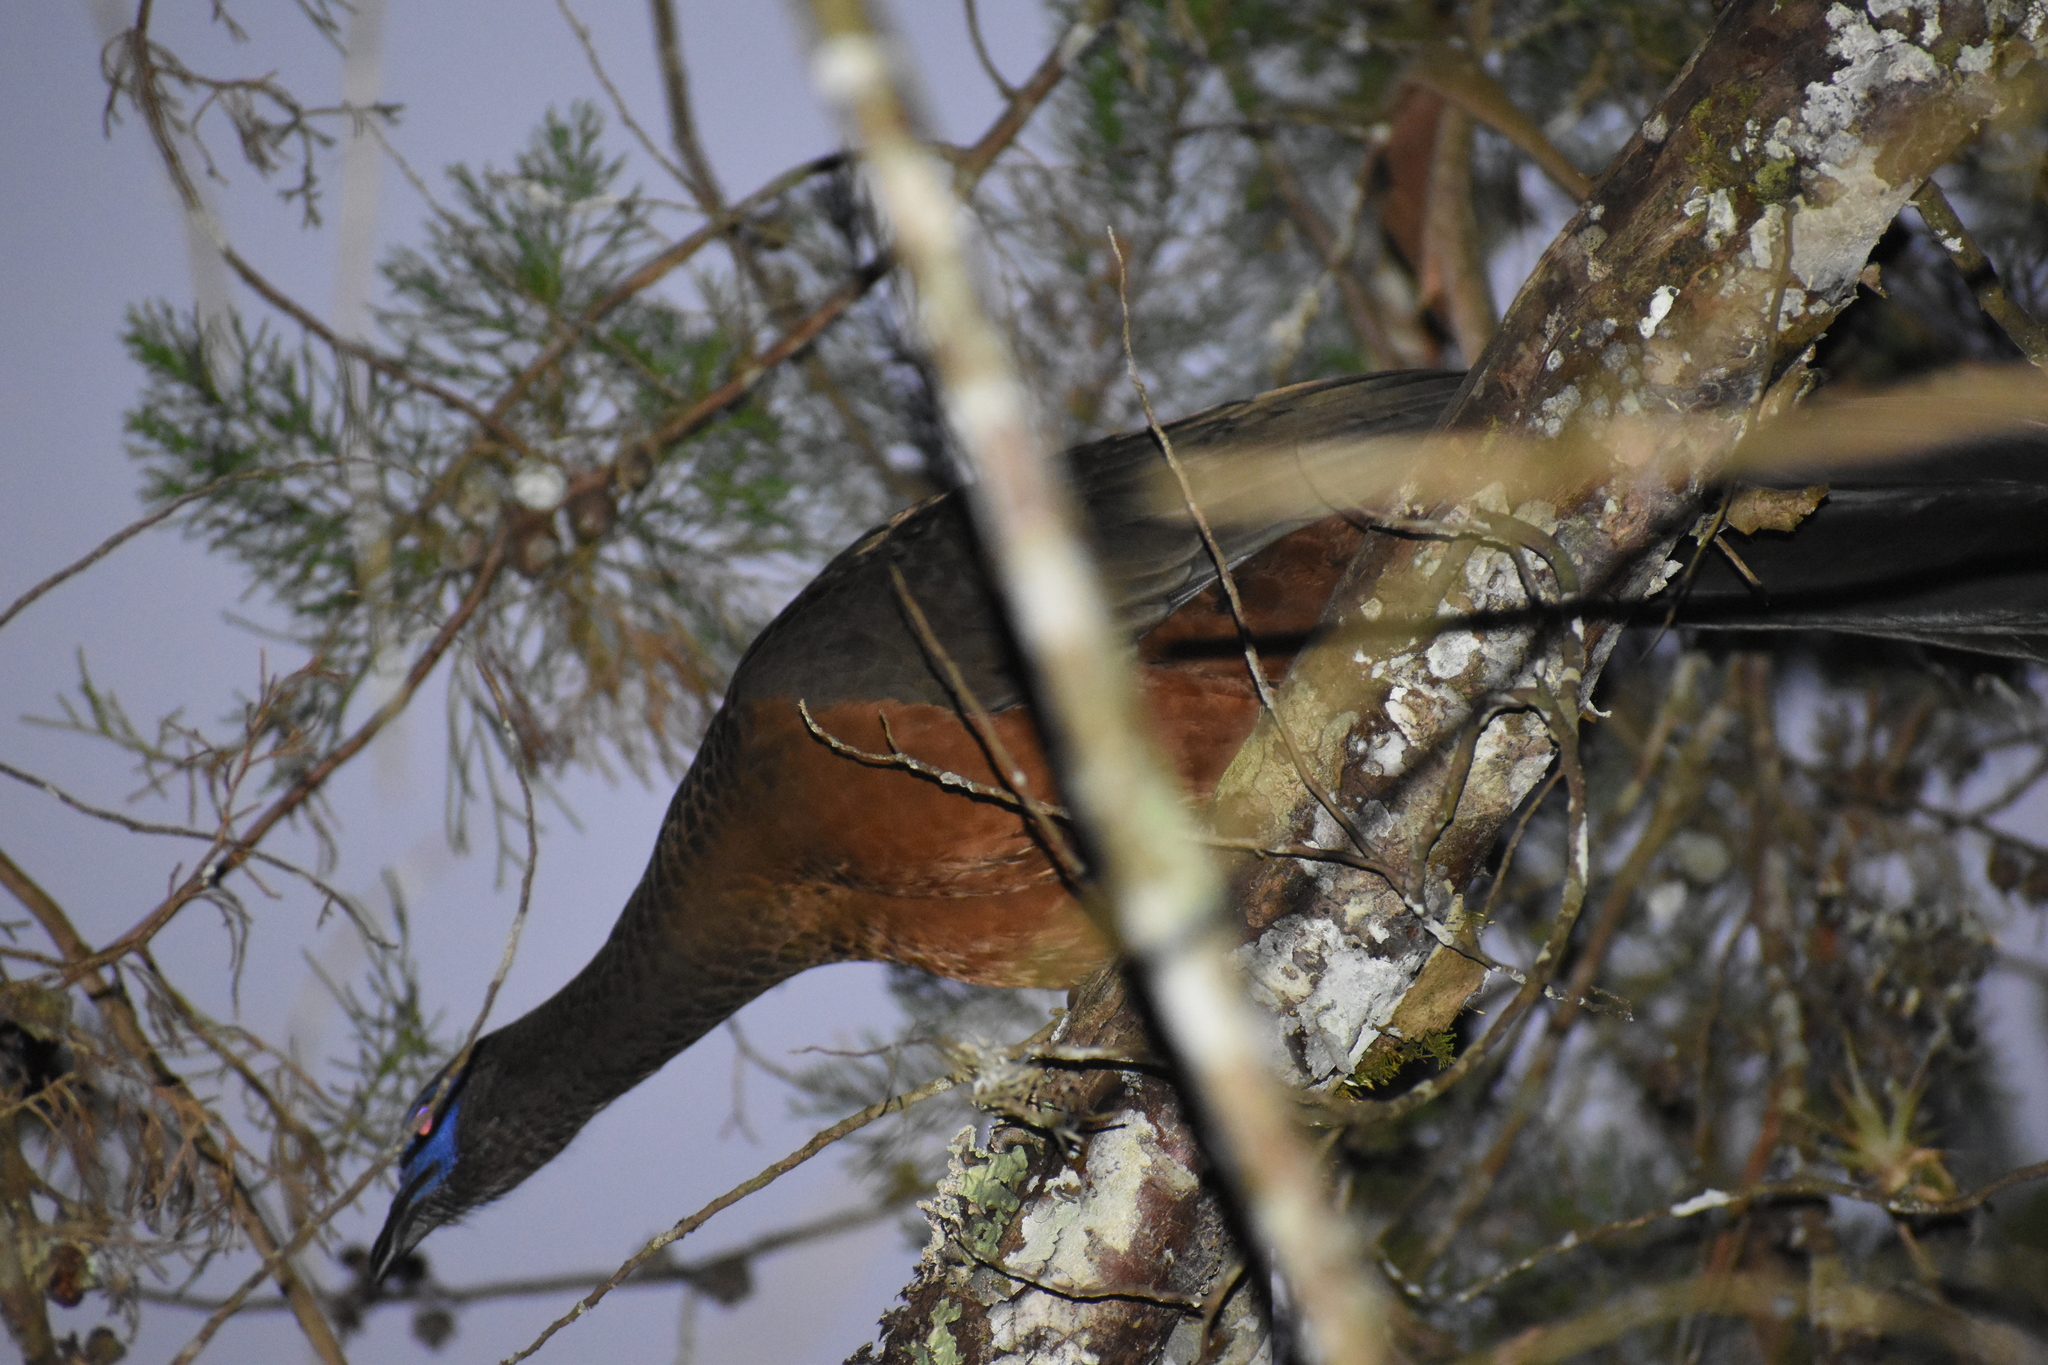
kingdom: Animalia
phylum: Chordata
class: Aves
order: Galliformes
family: Cracidae
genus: Chamaepetes
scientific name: Chamaepetes goudotii
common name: Sickle-winged guan
